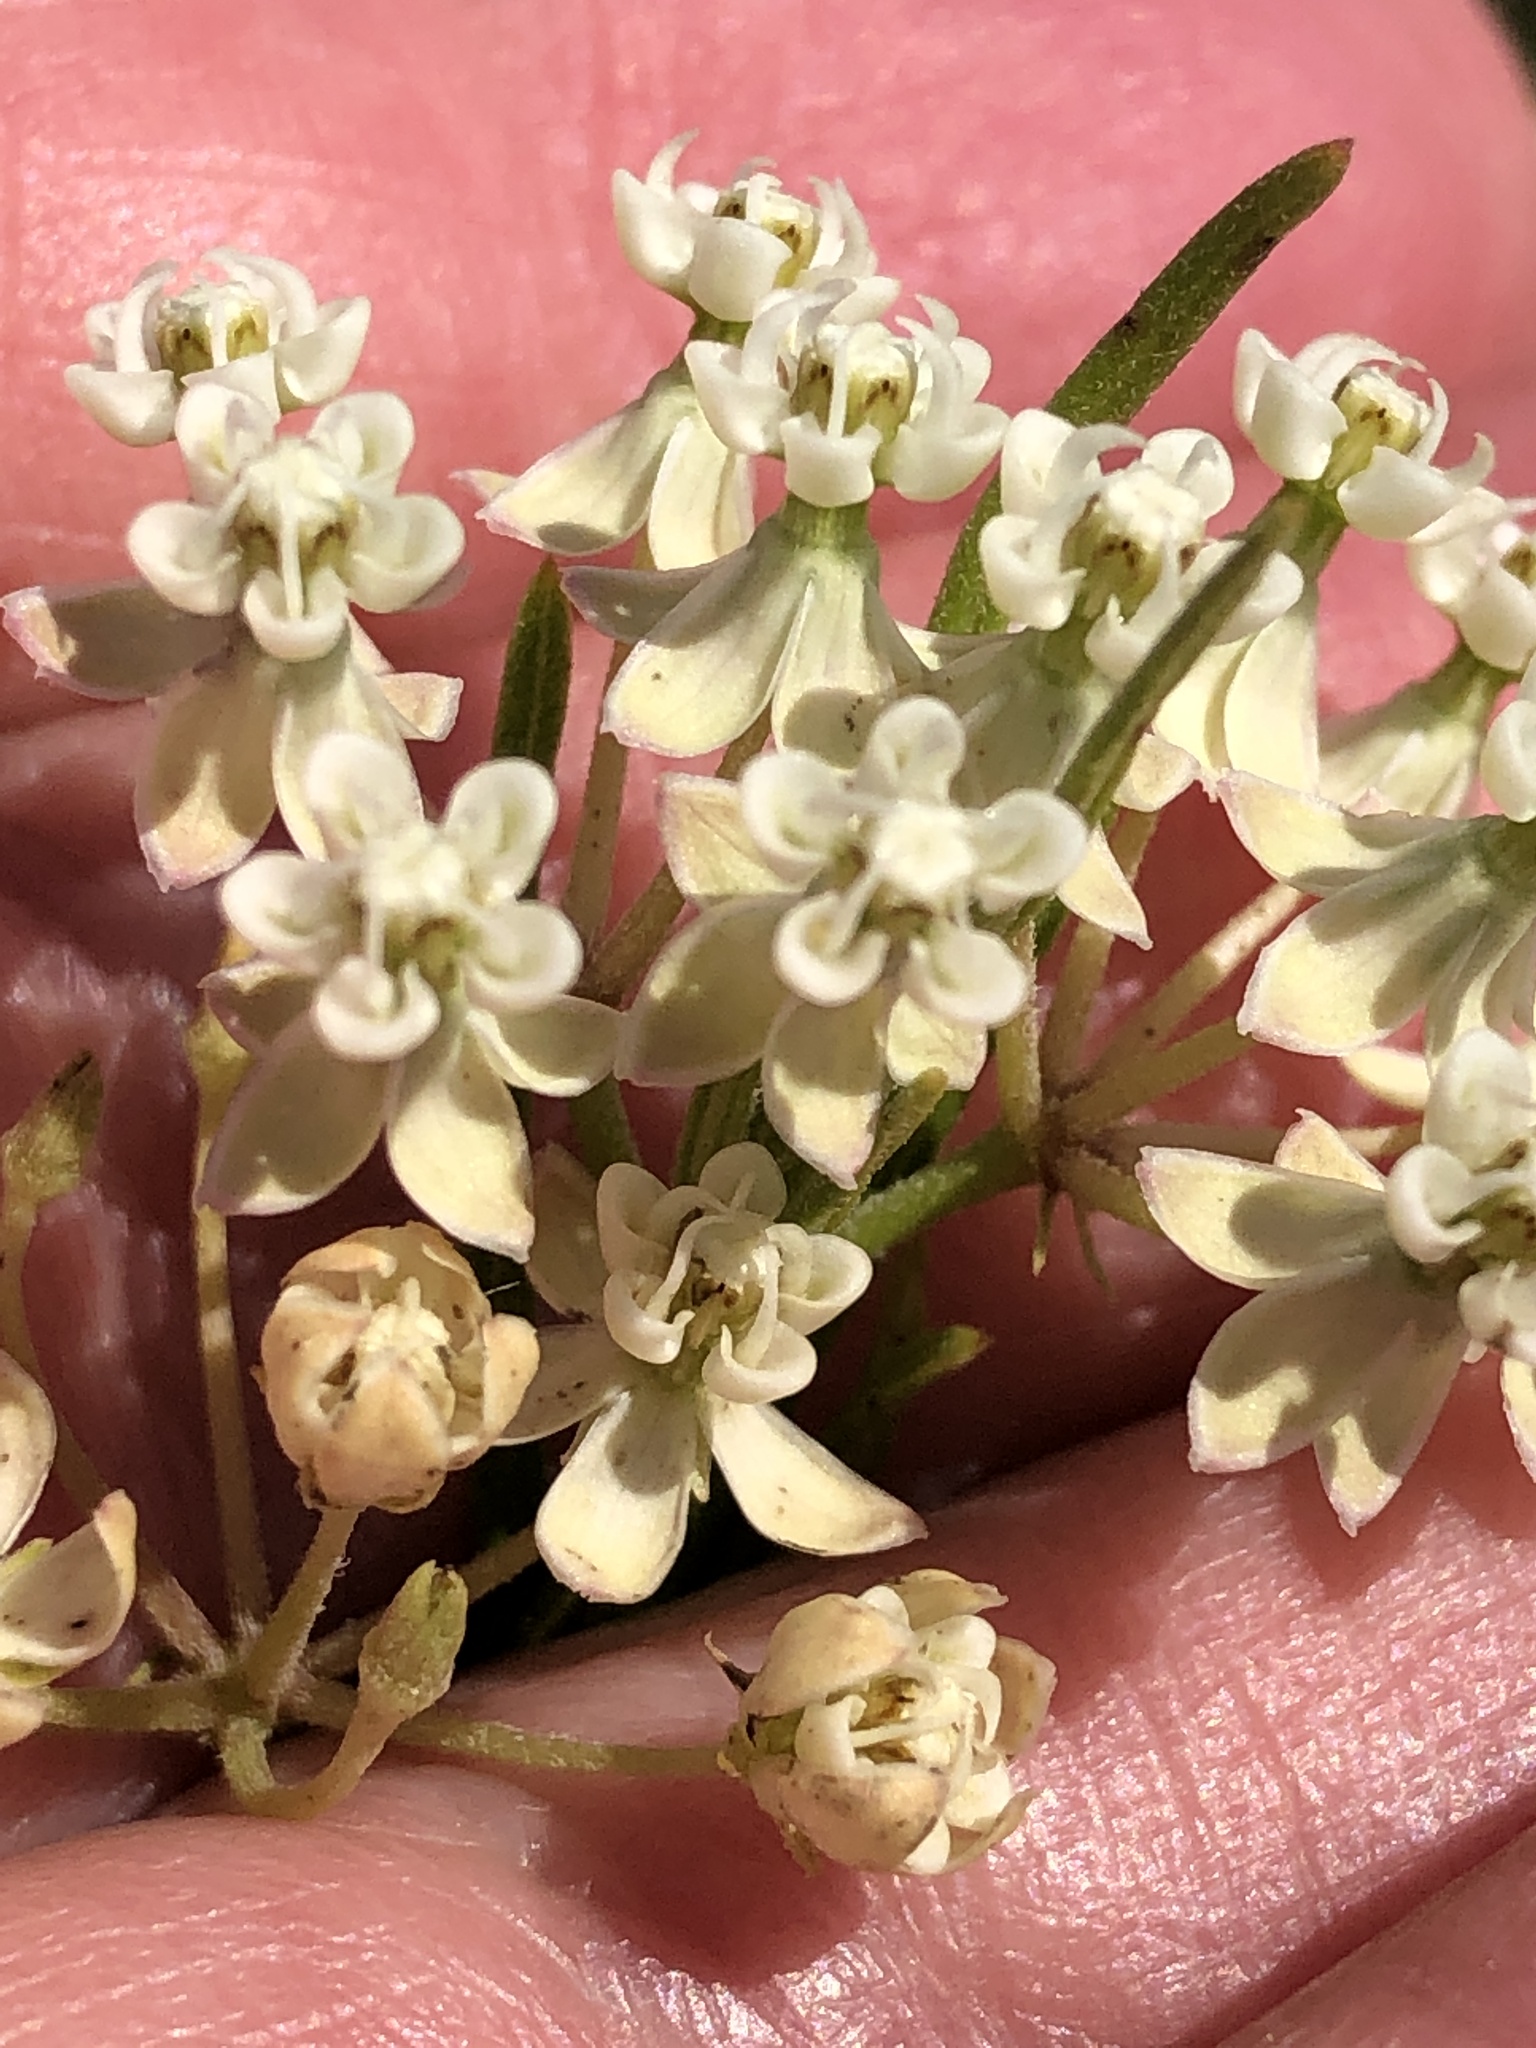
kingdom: Plantae
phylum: Tracheophyta
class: Magnoliopsida
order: Gentianales
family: Apocynaceae
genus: Asclepias
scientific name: Asclepias verticillata
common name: Eastern whorled milkweed
